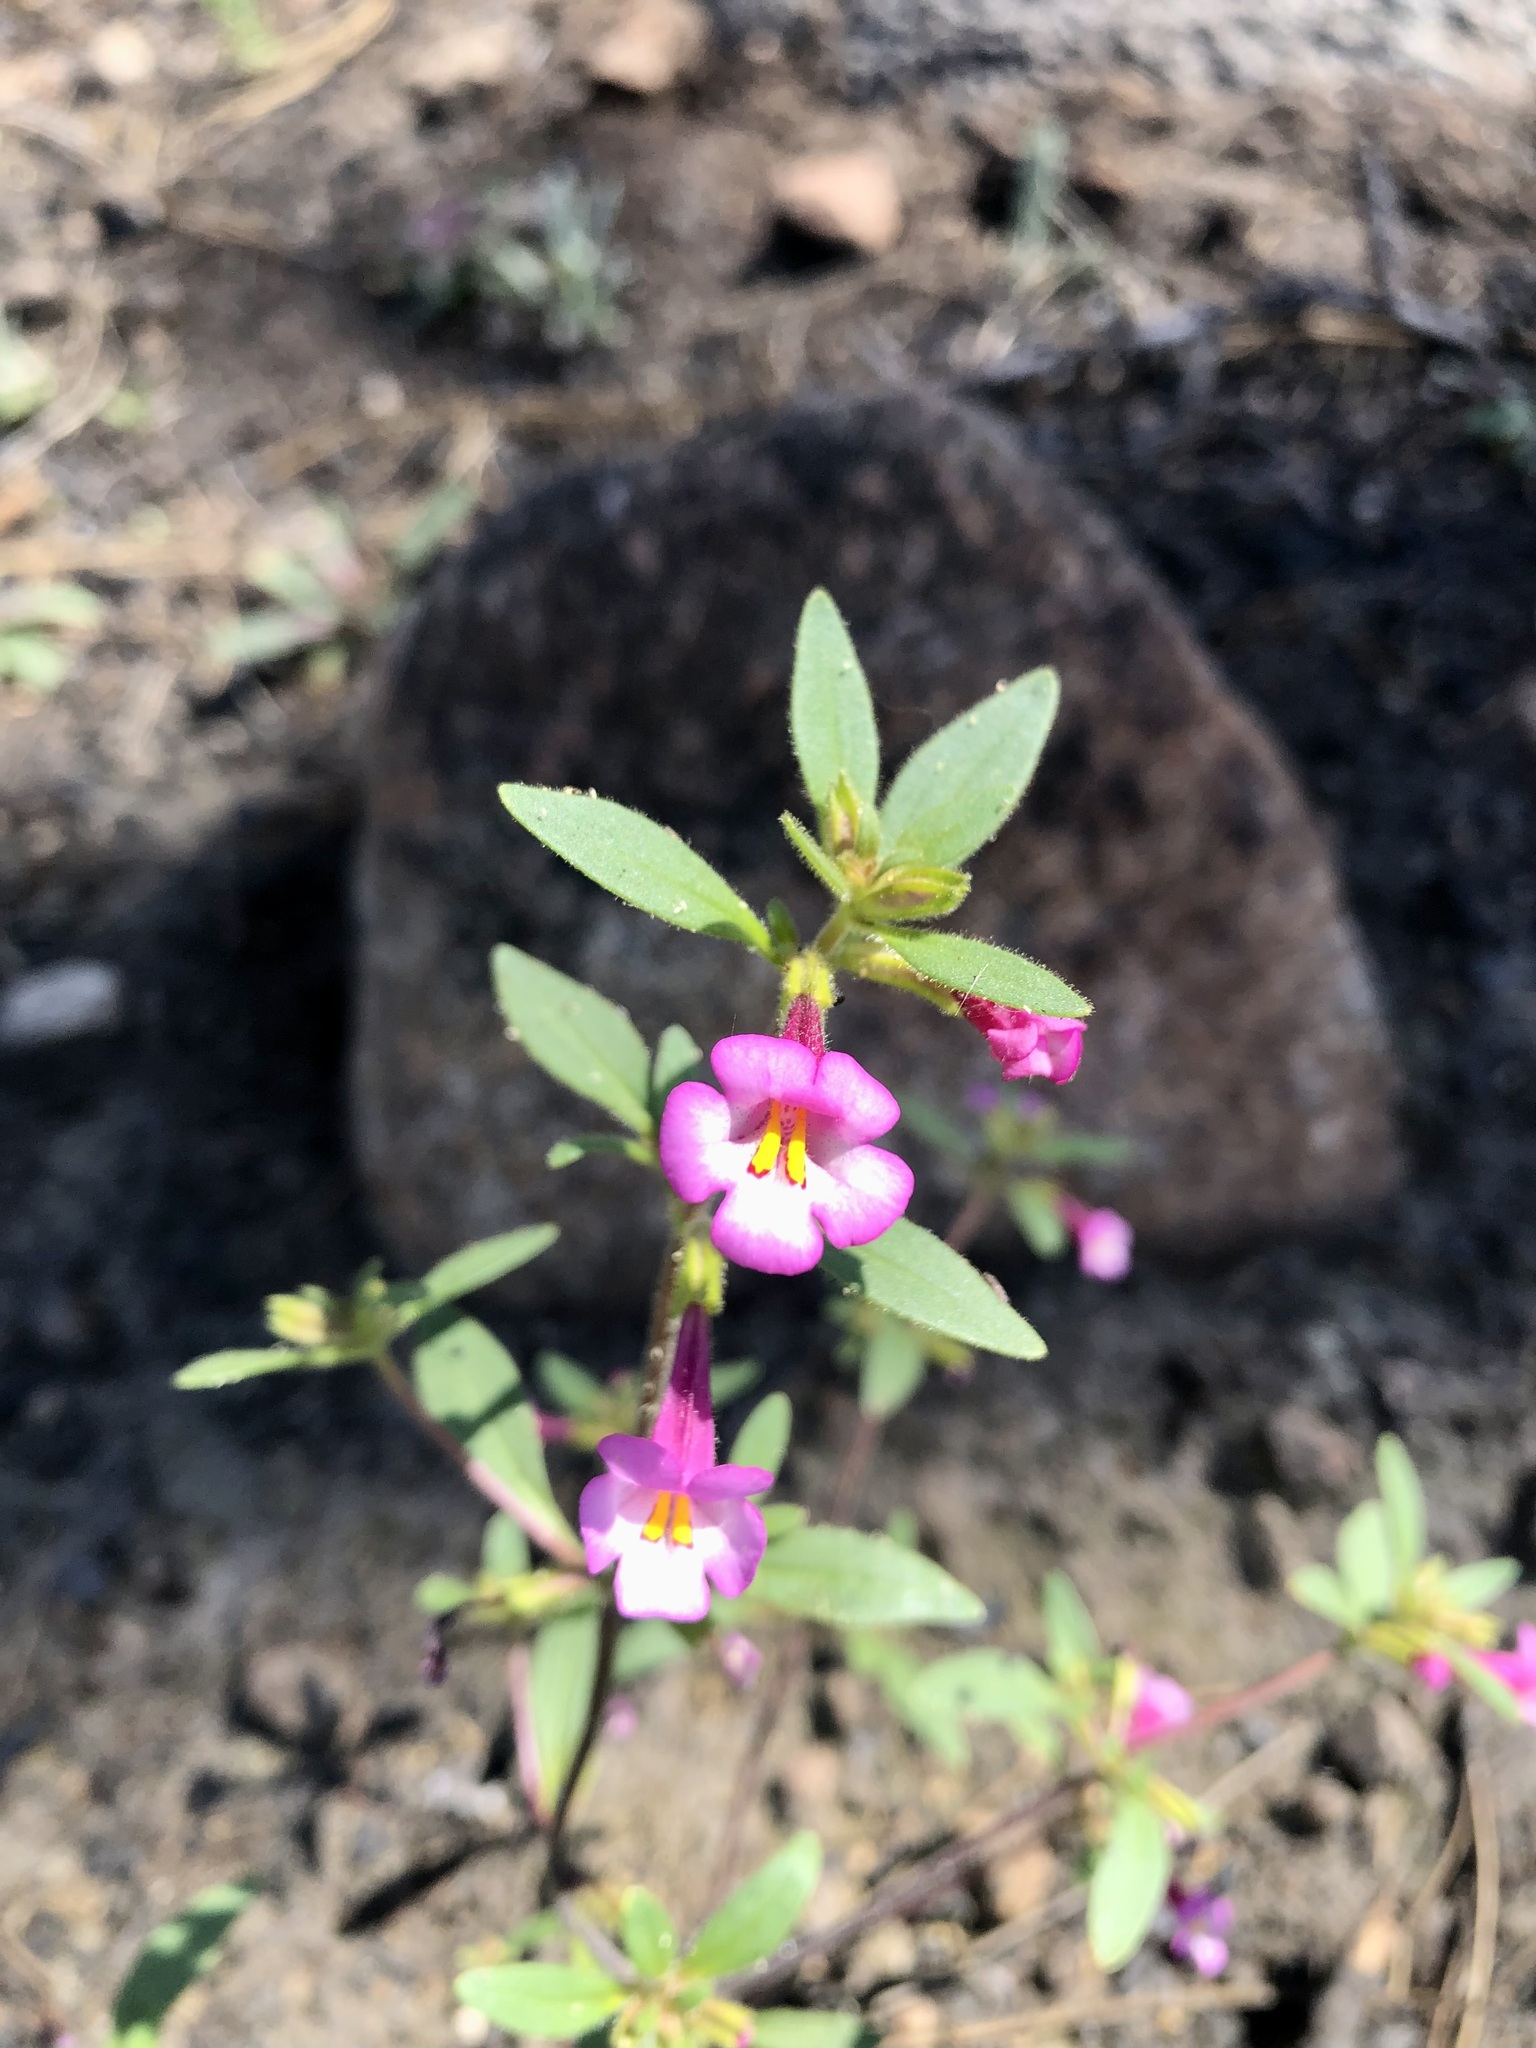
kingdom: Plantae
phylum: Tracheophyta
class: Magnoliopsida
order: Lamiales
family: Phrymaceae
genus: Diplacus
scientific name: Diplacus torreyi
